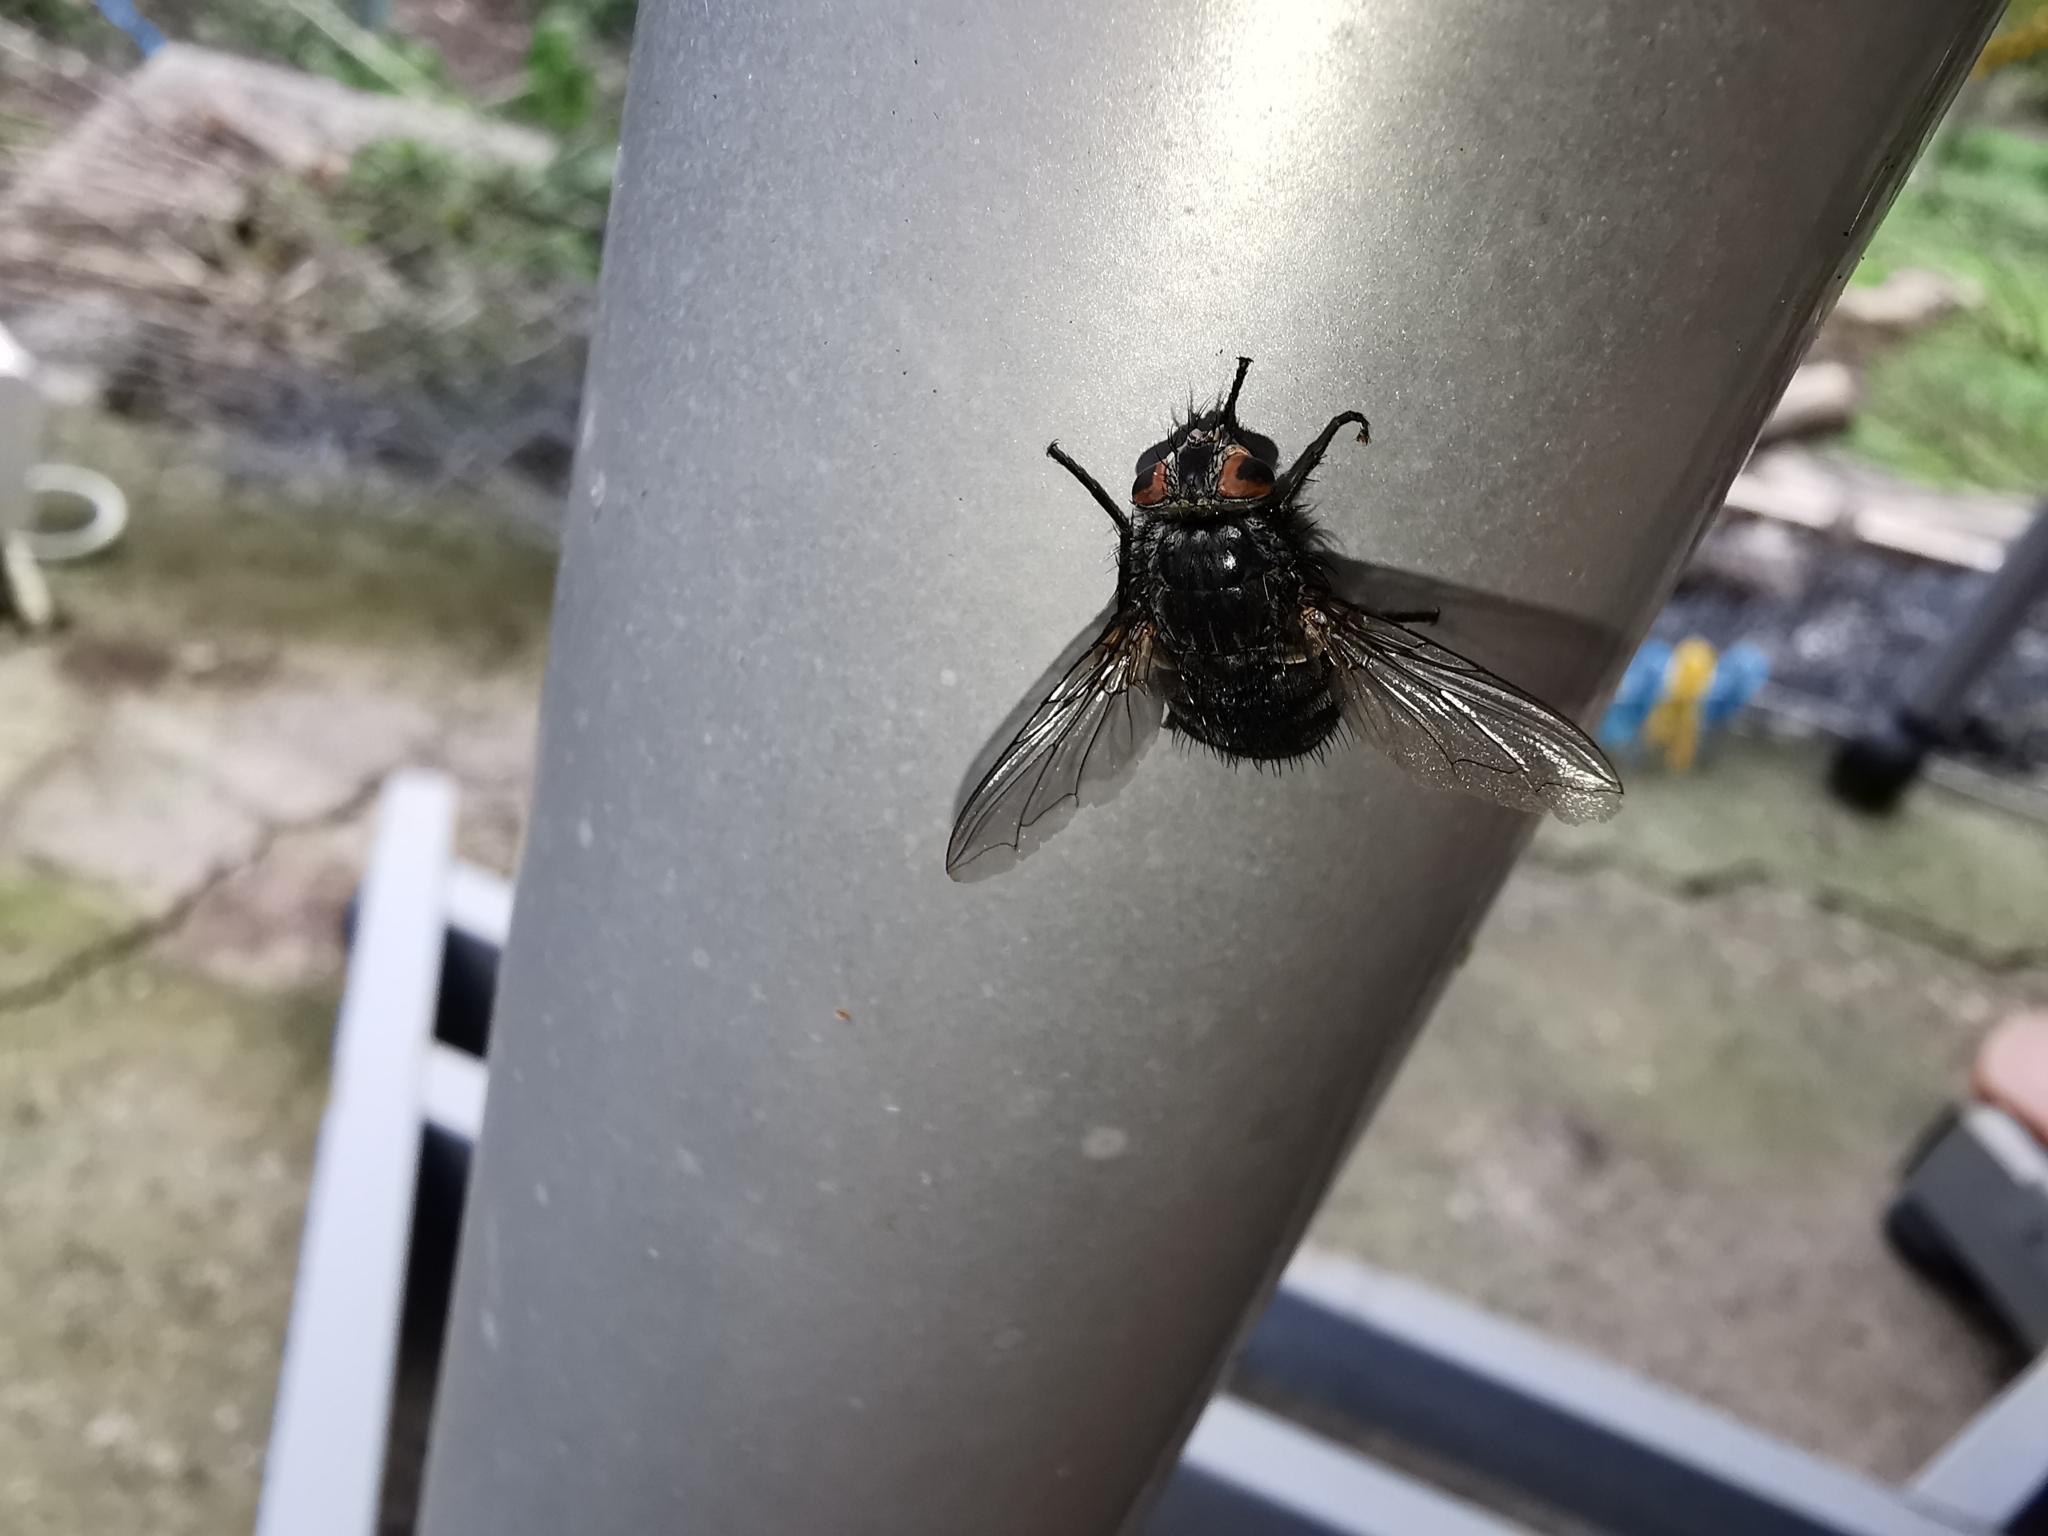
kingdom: Animalia
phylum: Arthropoda
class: Insecta
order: Diptera
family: Calliphoridae
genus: Calliphora
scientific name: Calliphora
